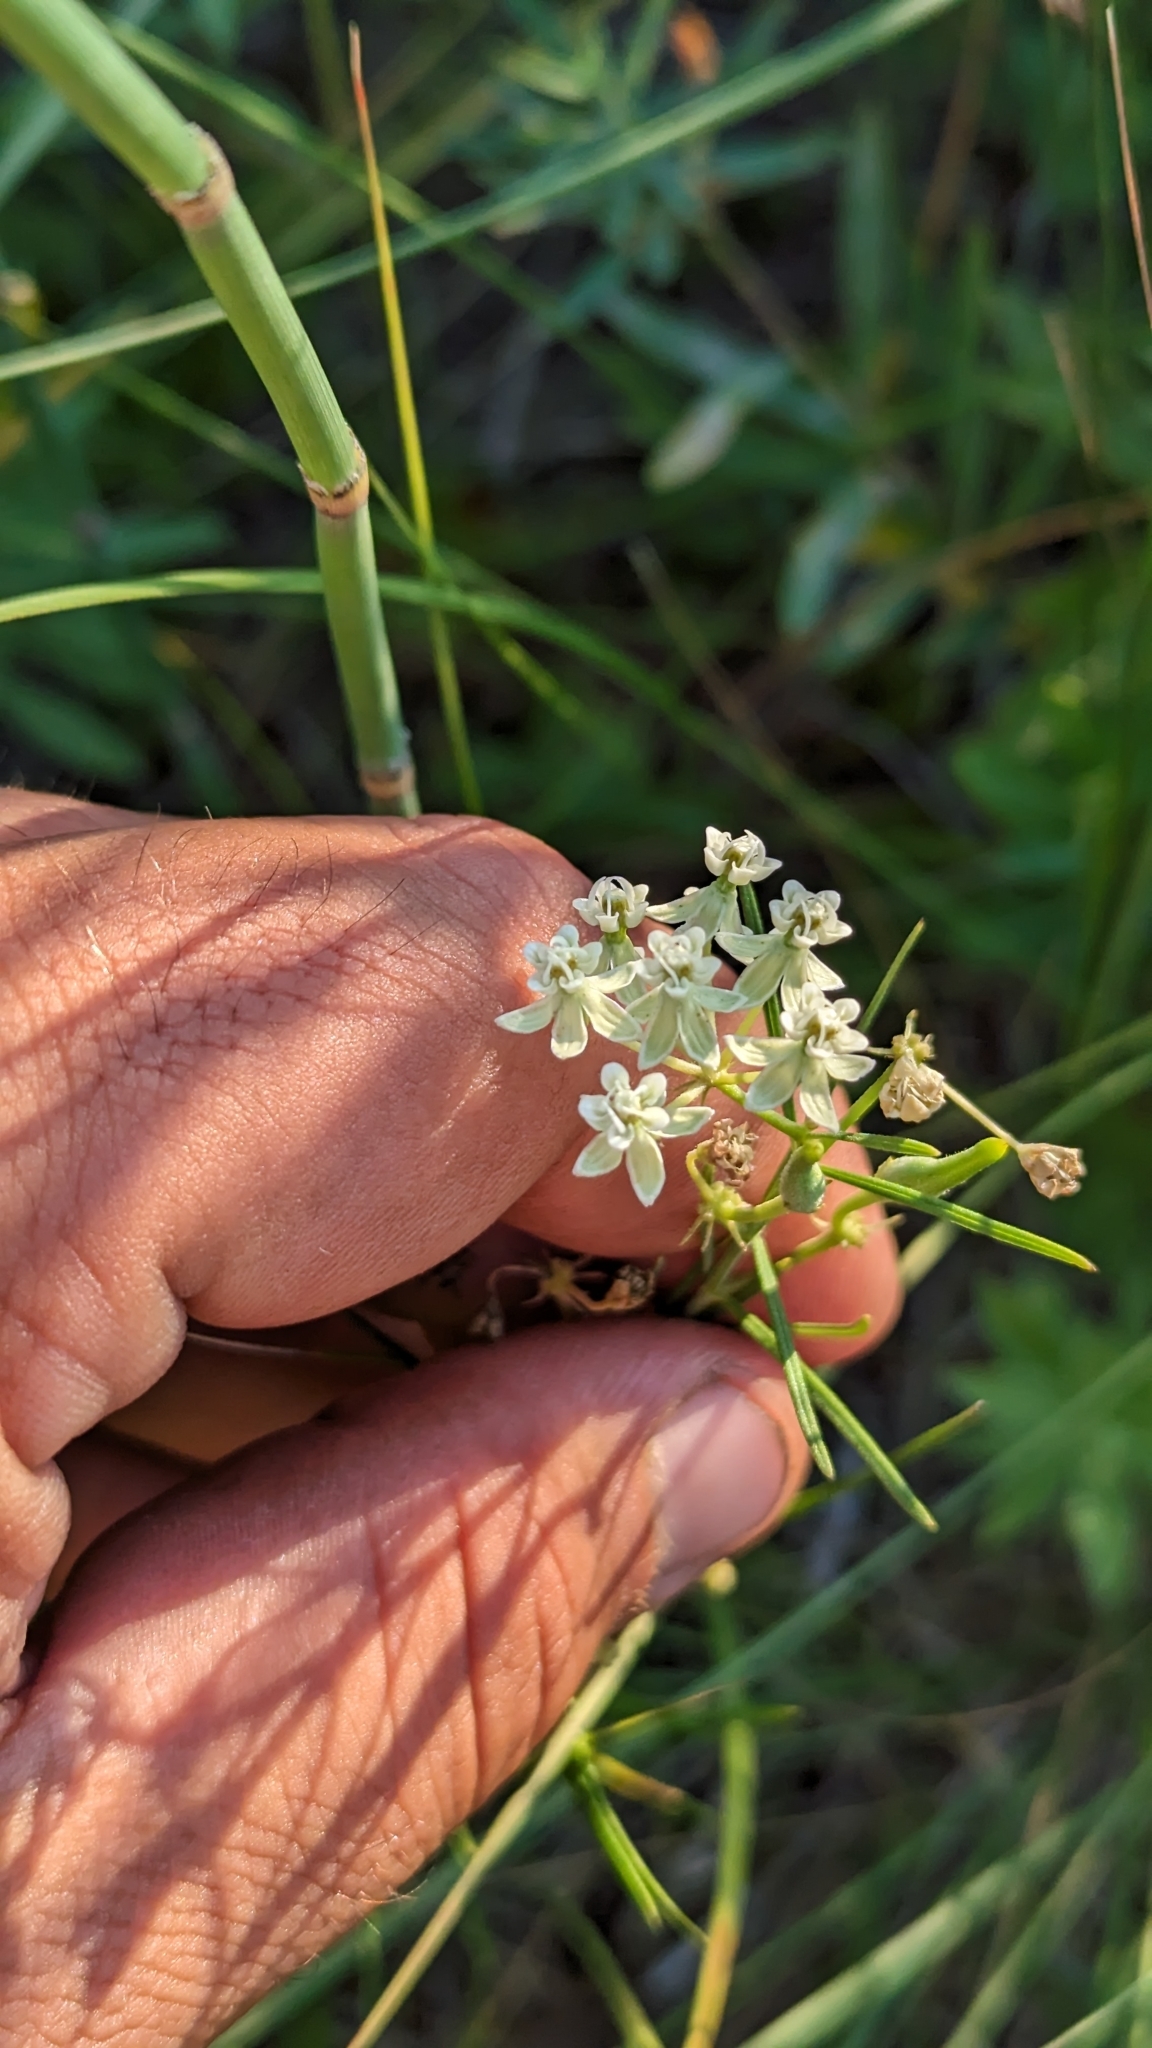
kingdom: Plantae
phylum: Tracheophyta
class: Magnoliopsida
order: Gentianales
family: Apocynaceae
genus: Asclepias
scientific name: Asclepias verticillata
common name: Eastern whorled milkweed
